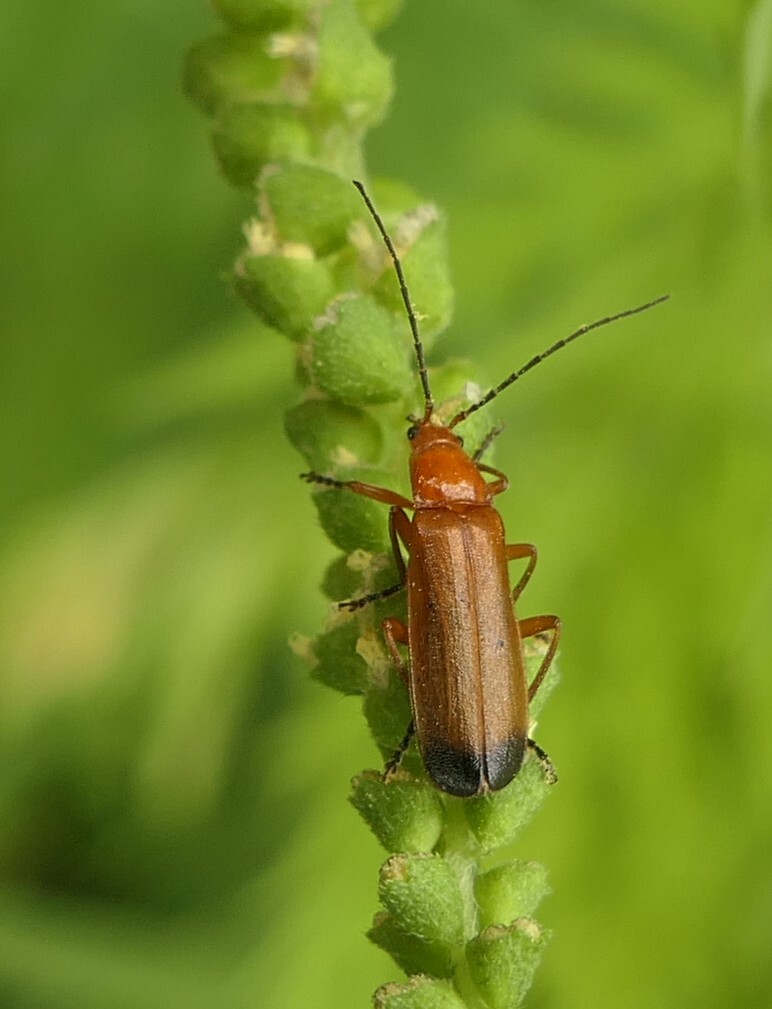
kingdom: Animalia
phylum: Arthropoda
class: Insecta
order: Coleoptera
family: Cantharidae
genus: Rhagonycha
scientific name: Rhagonycha fulva
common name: Common red soldier beetle
